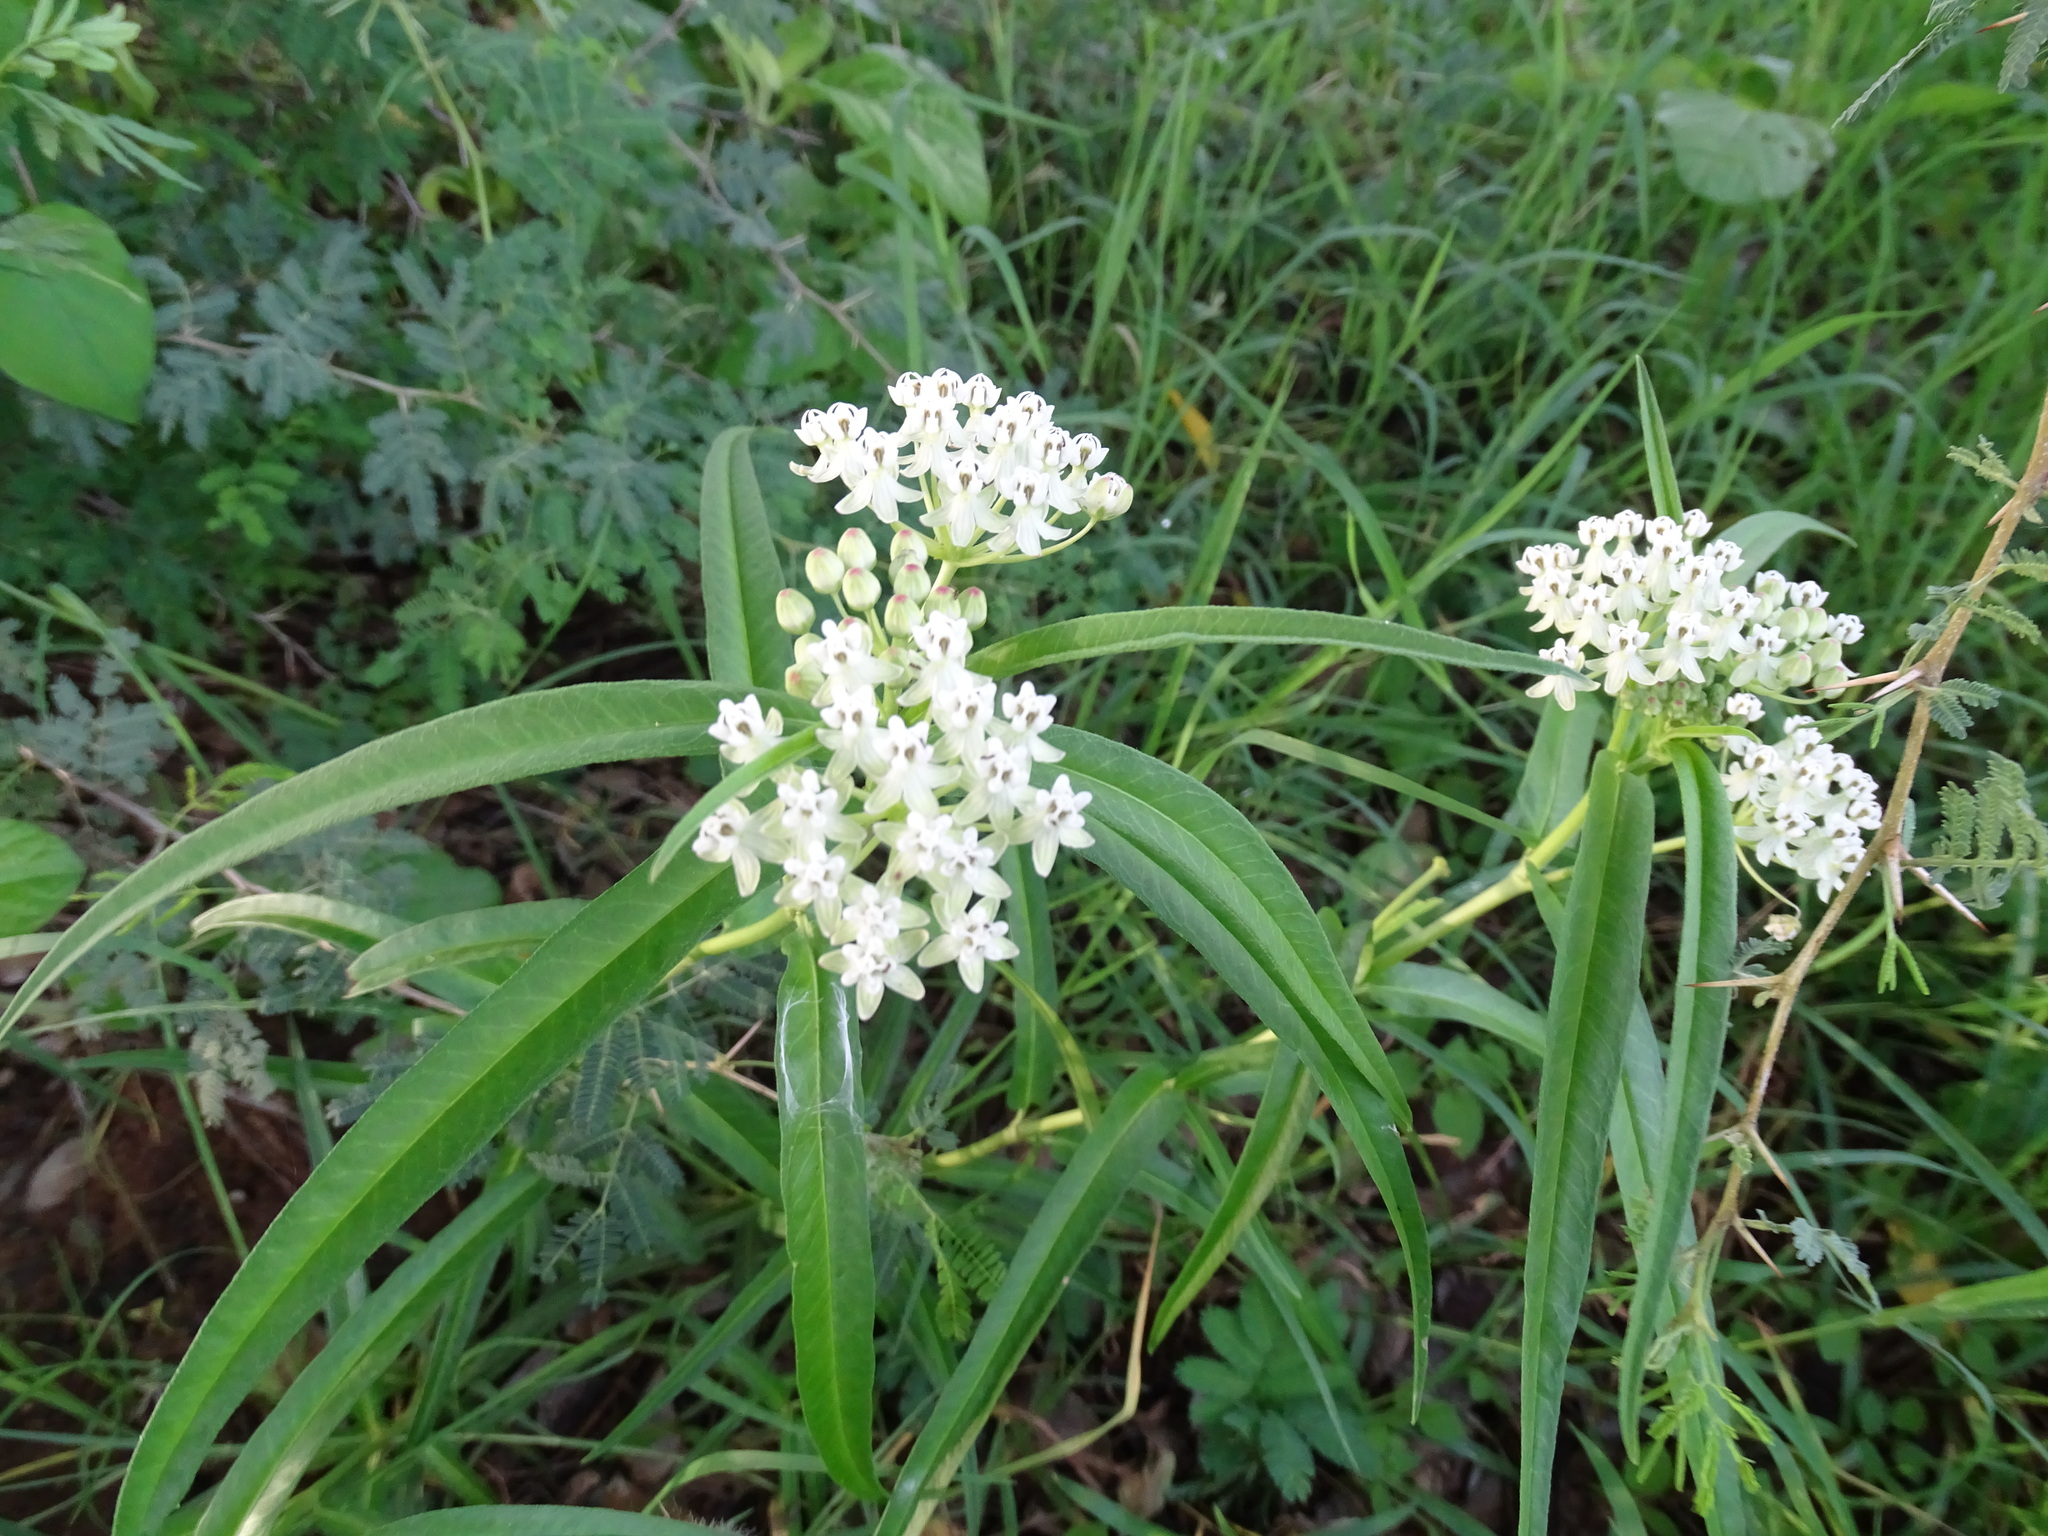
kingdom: Plantae
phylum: Tracheophyta
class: Magnoliopsida
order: Gentianales
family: Apocynaceae
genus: Asclepias
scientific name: Asclepias woodsoniana
